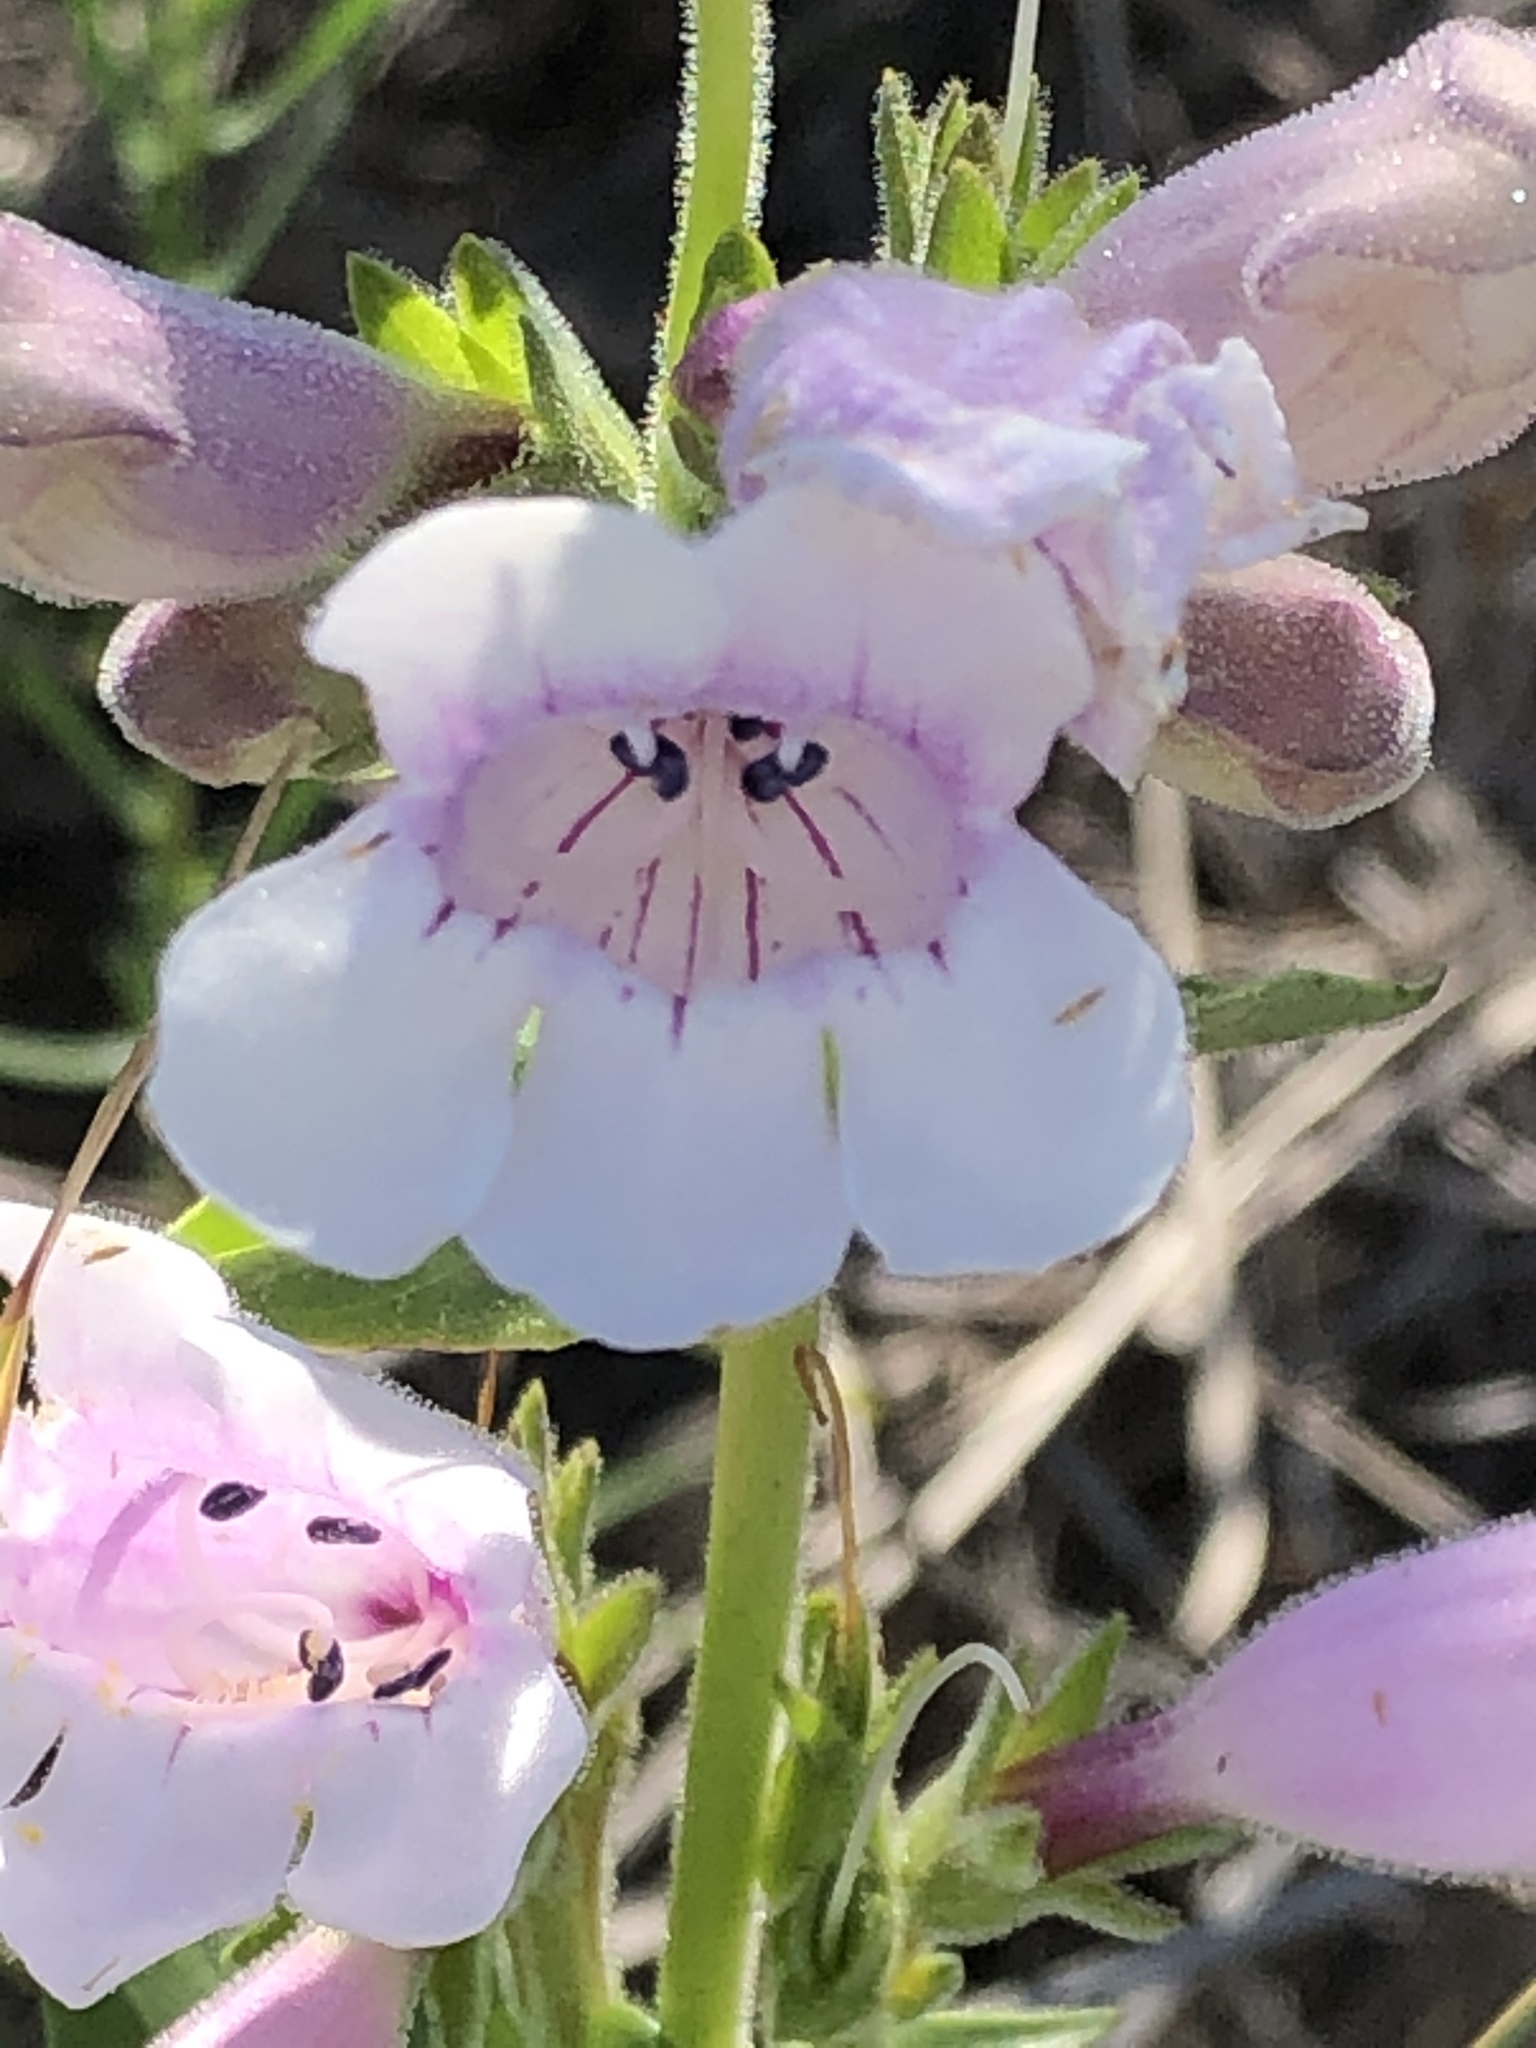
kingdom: Plantae
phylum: Tracheophyta
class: Magnoliopsida
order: Lamiales
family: Plantaginaceae
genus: Penstemon
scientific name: Penstemon cobaea
